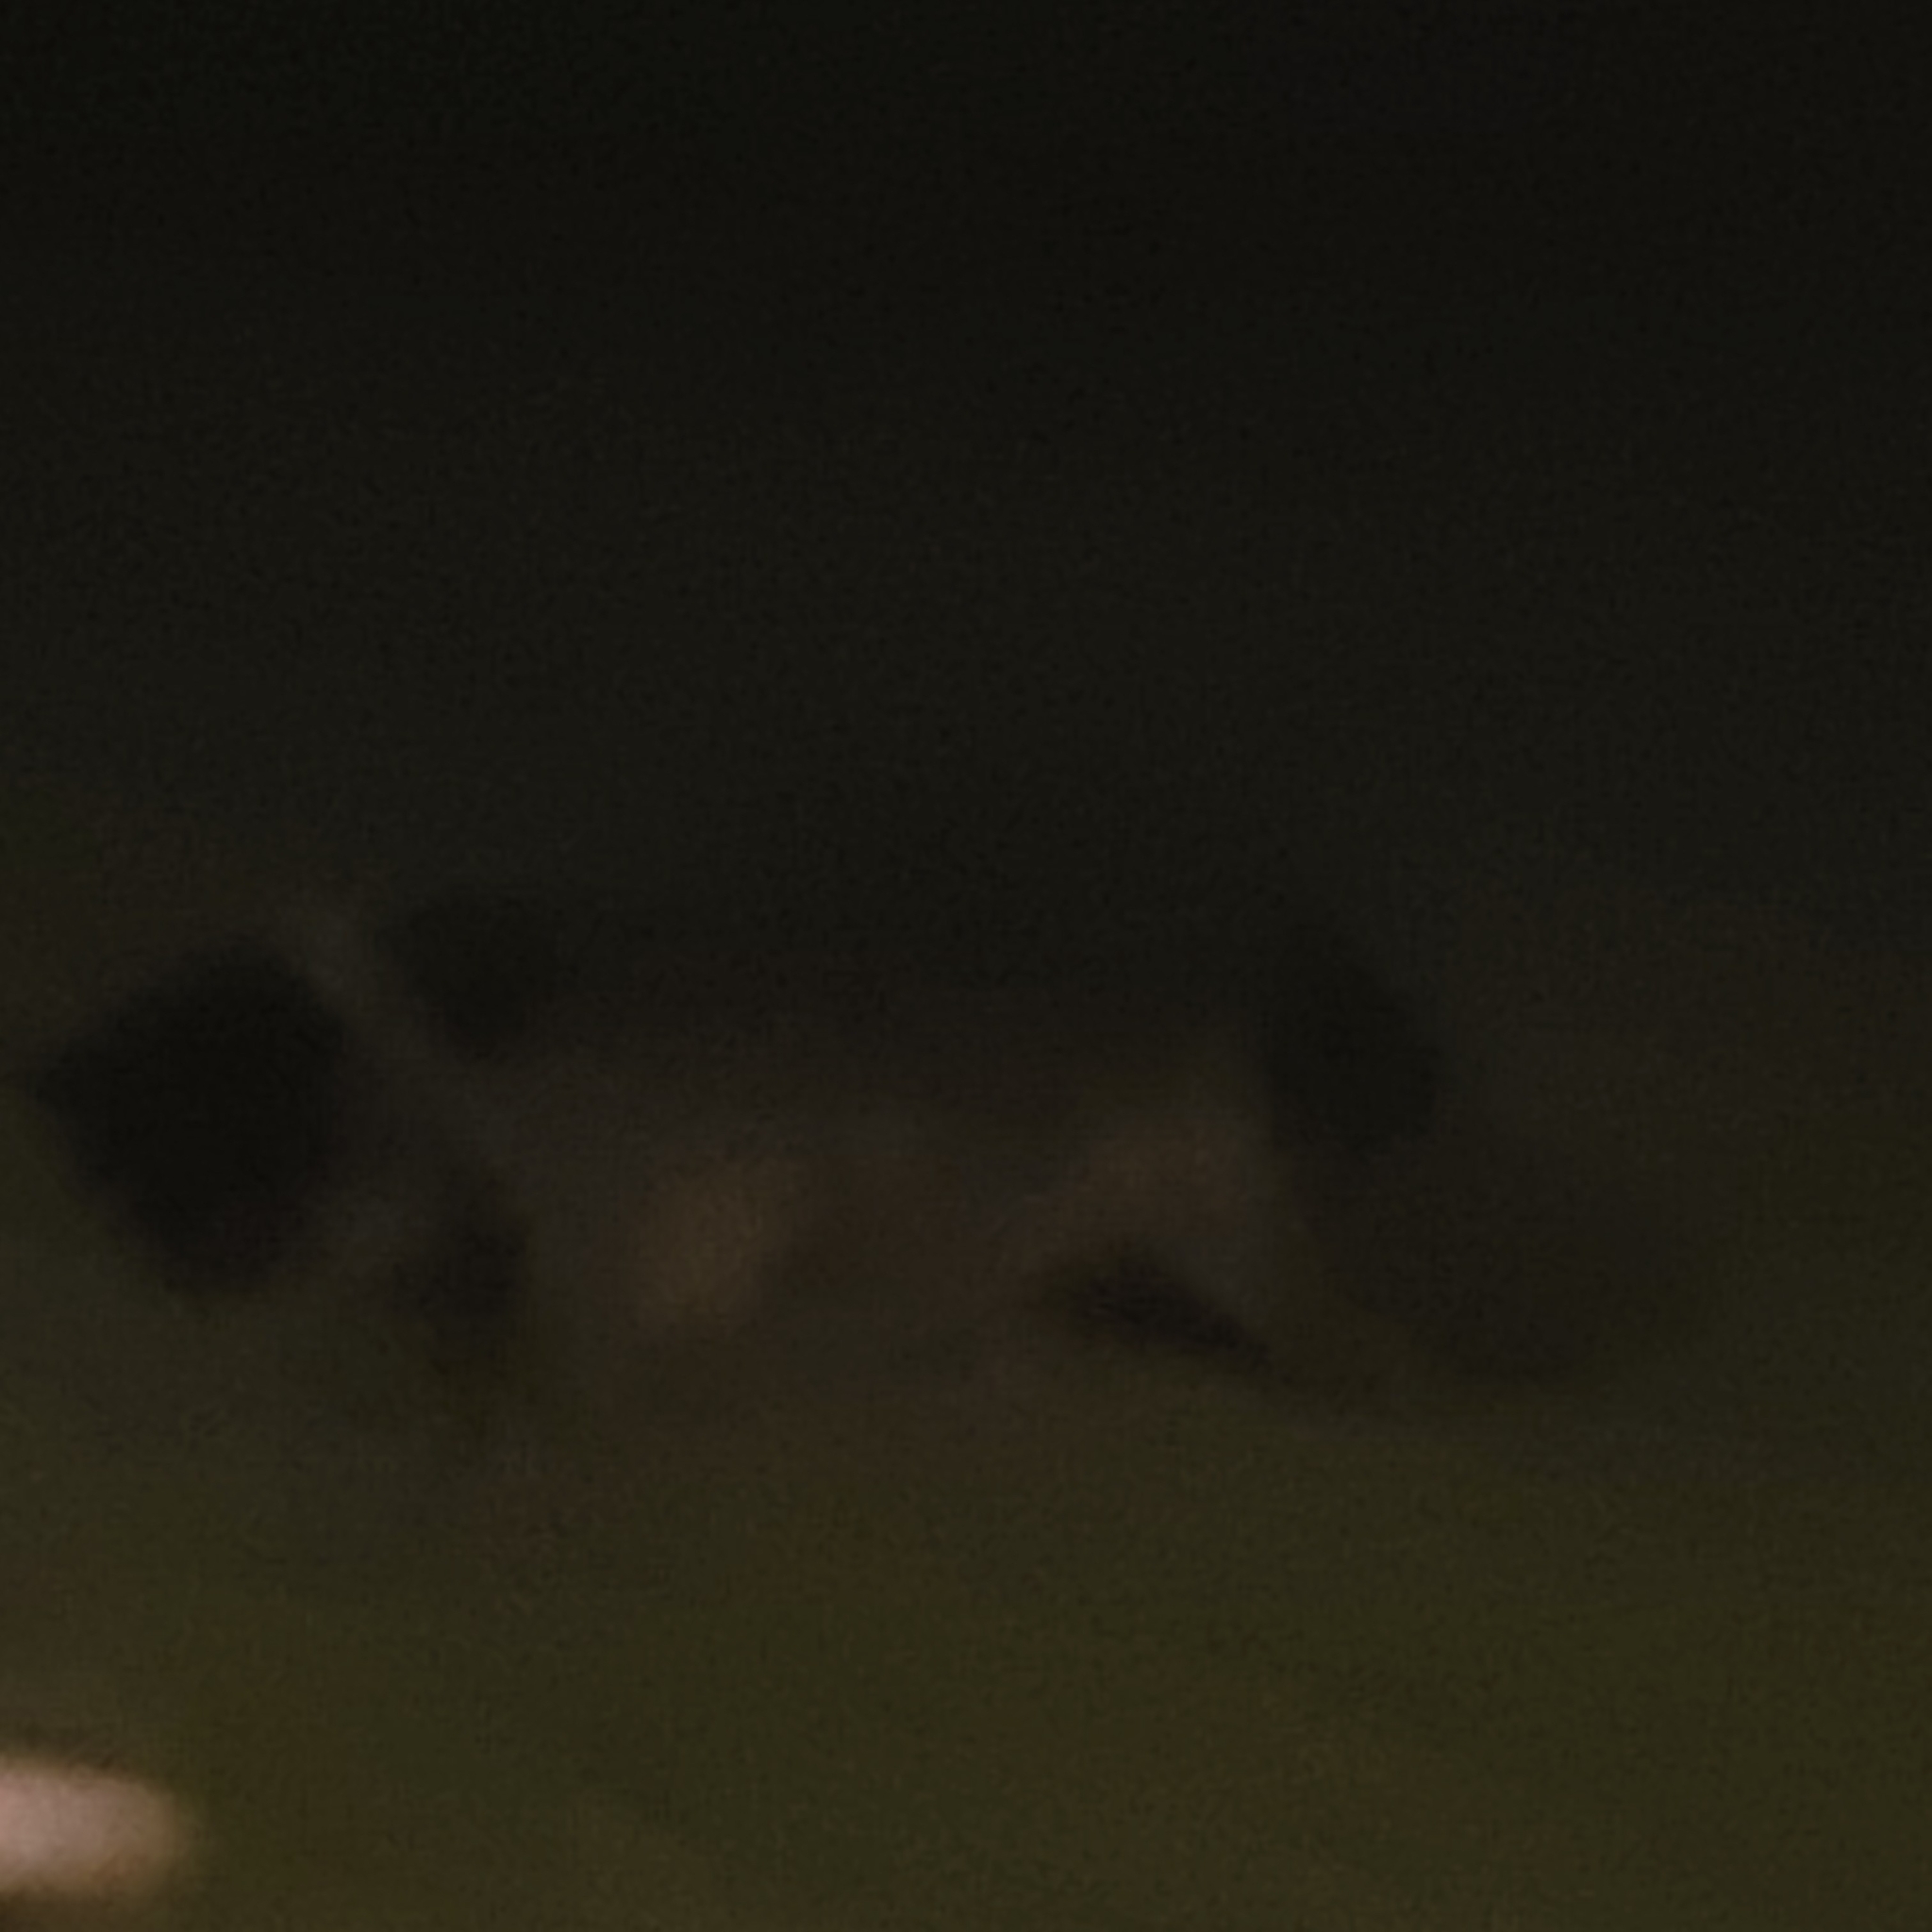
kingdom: Animalia
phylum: Chordata
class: Mammalia
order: Carnivora
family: Procyonidae
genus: Procyon
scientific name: Procyon lotor
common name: Raccoon
